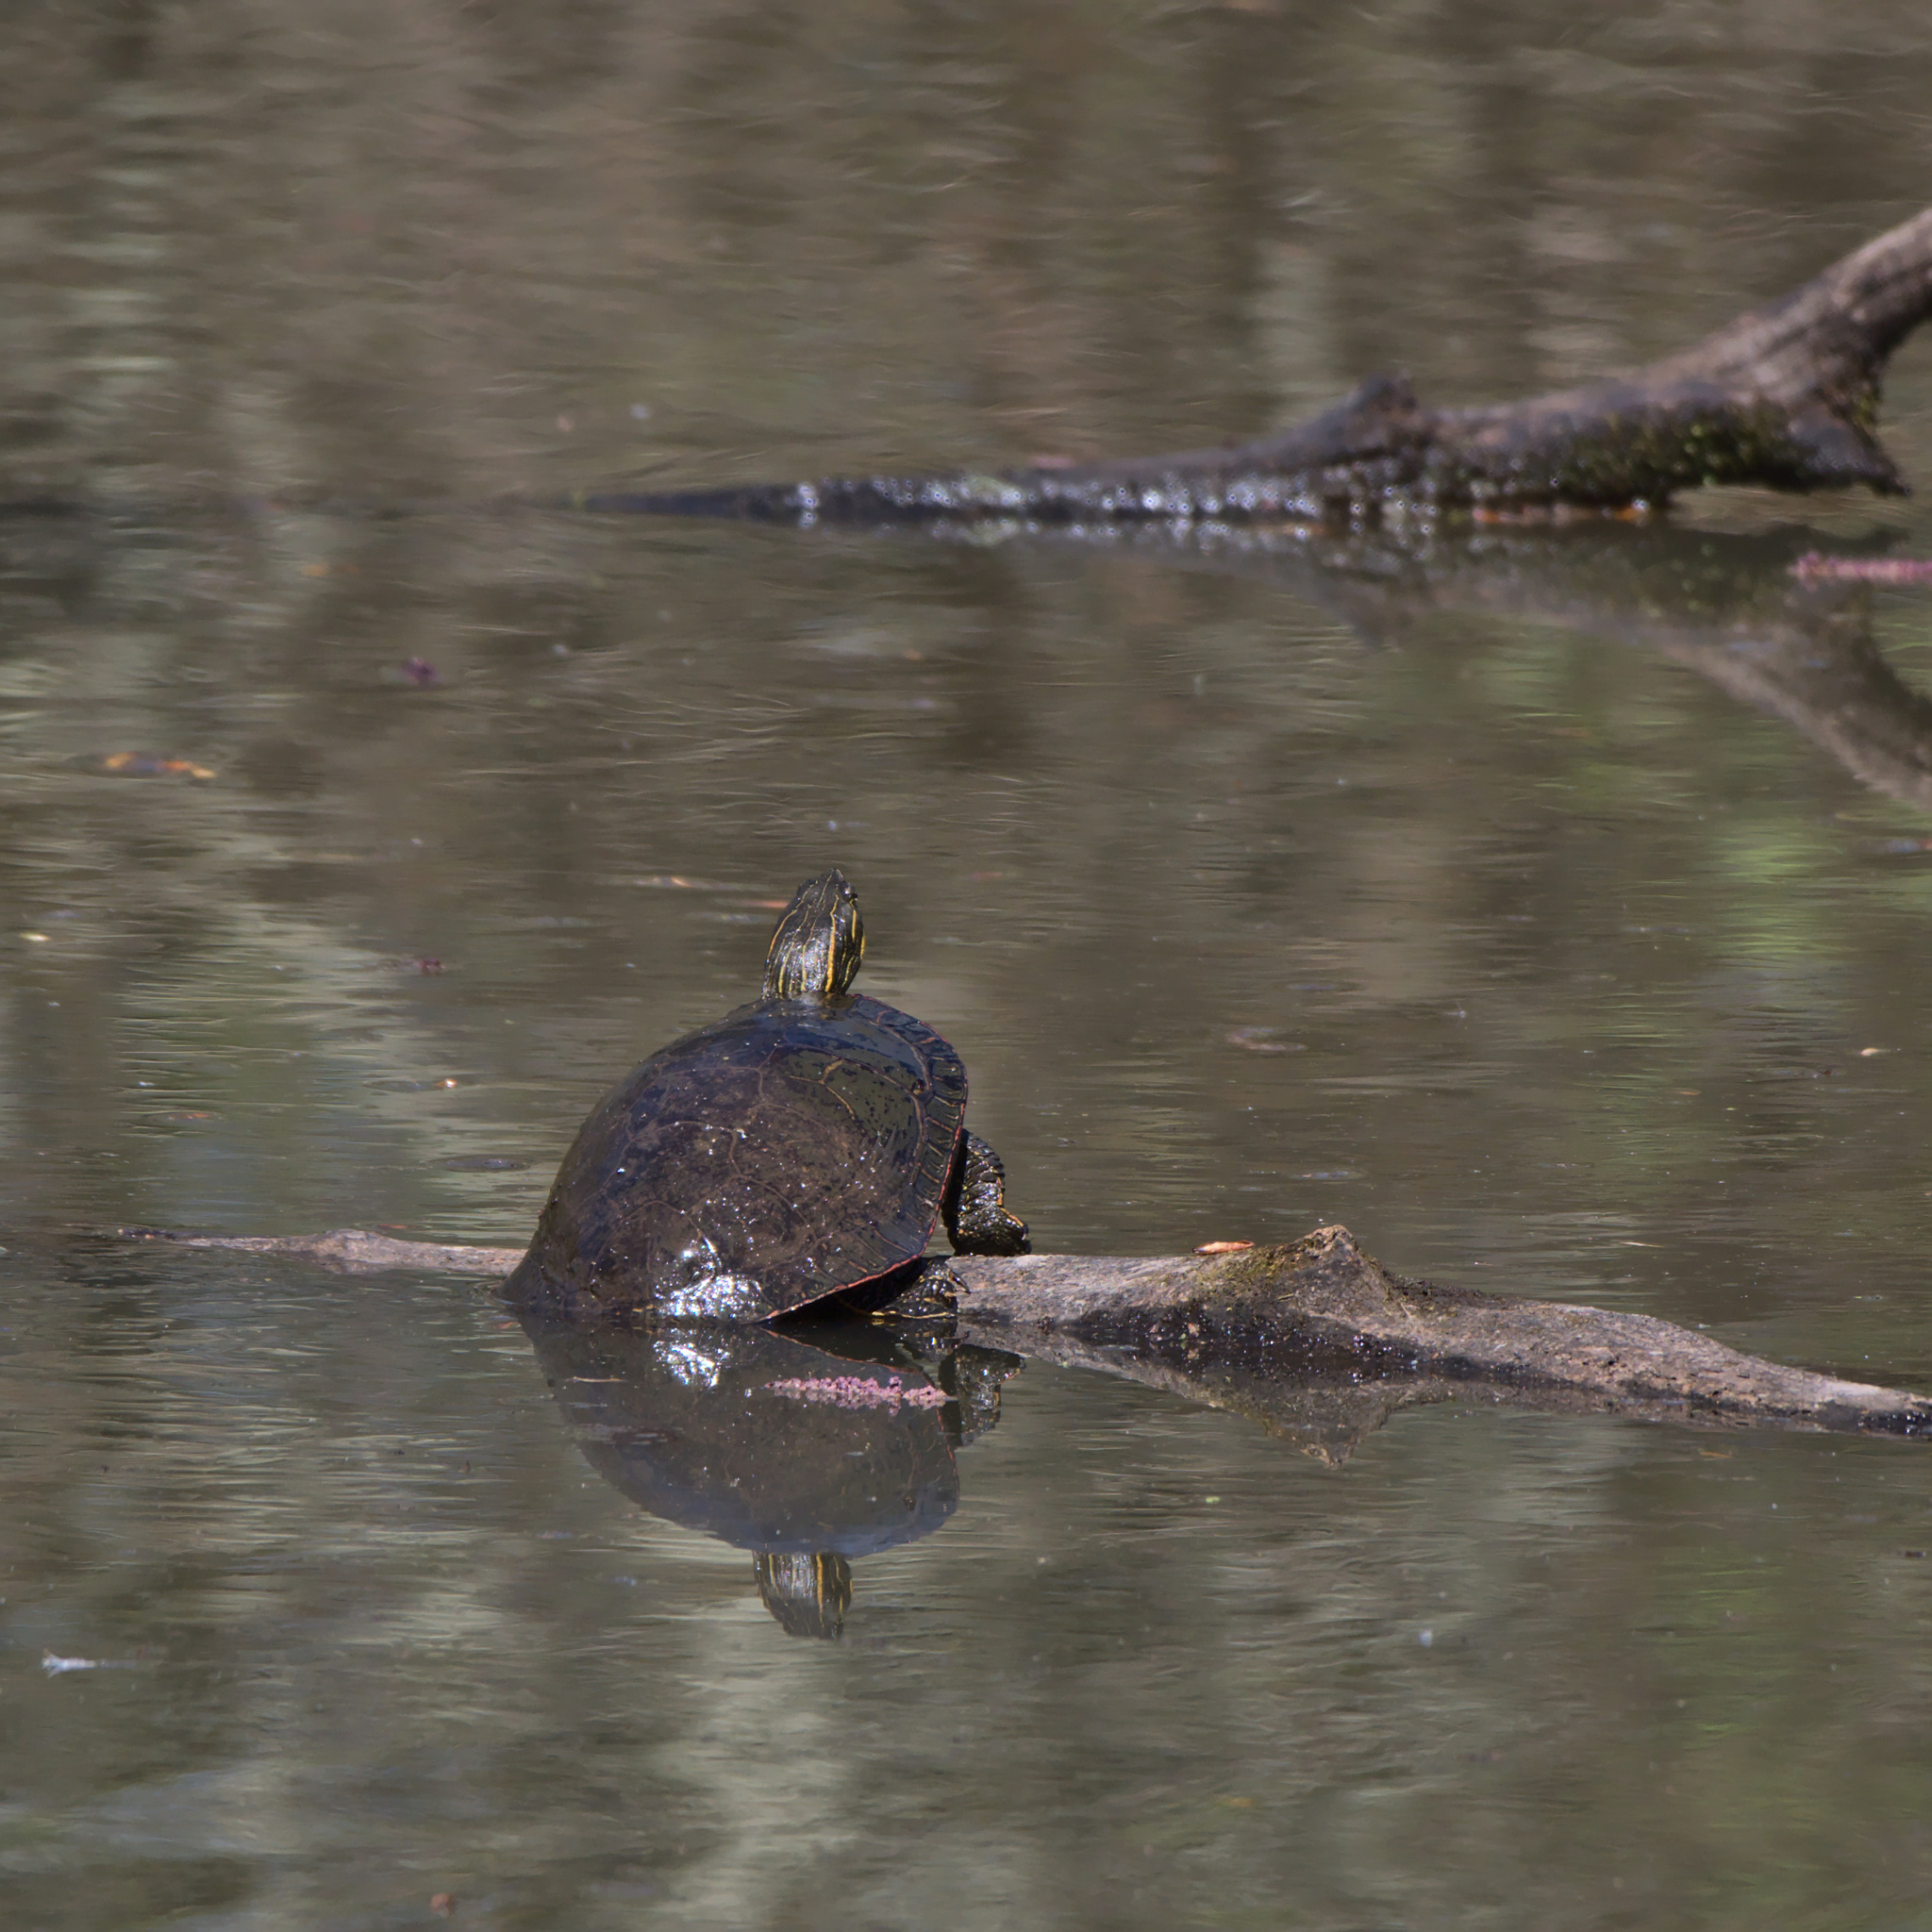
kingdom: Animalia
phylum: Chordata
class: Testudines
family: Emydidae
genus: Chrysemys
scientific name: Chrysemys picta
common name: Painted turtle
